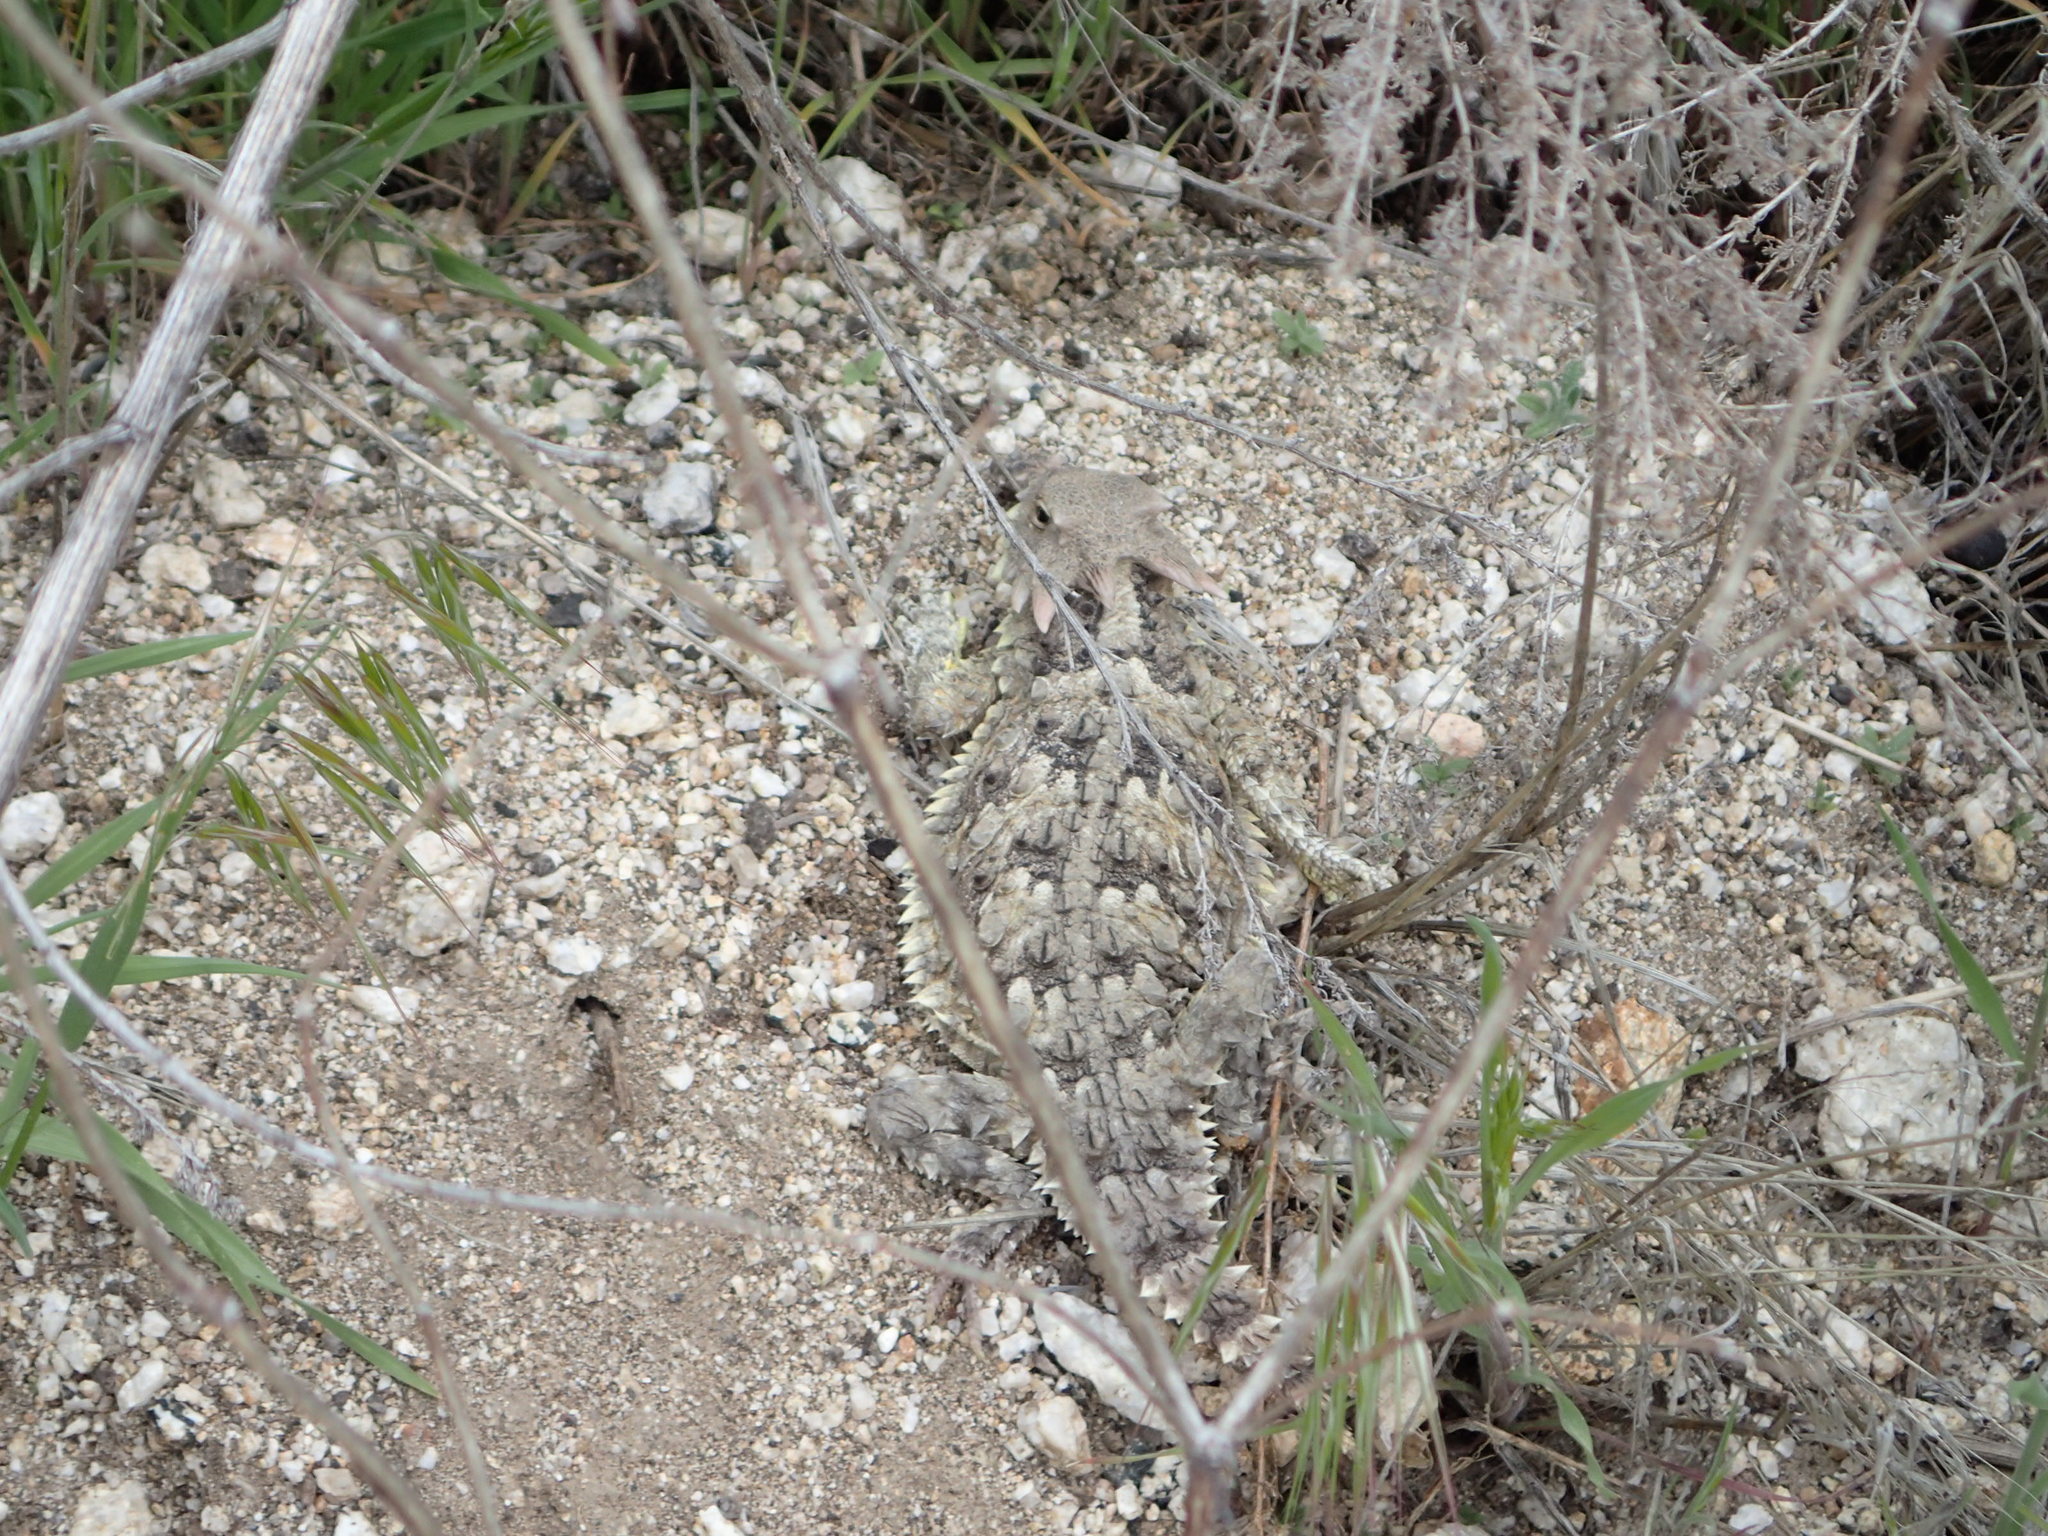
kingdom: Animalia
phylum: Chordata
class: Squamata
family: Phrynosomatidae
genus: Phrynosoma
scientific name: Phrynosoma blainvillii
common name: San diego horned lizard
